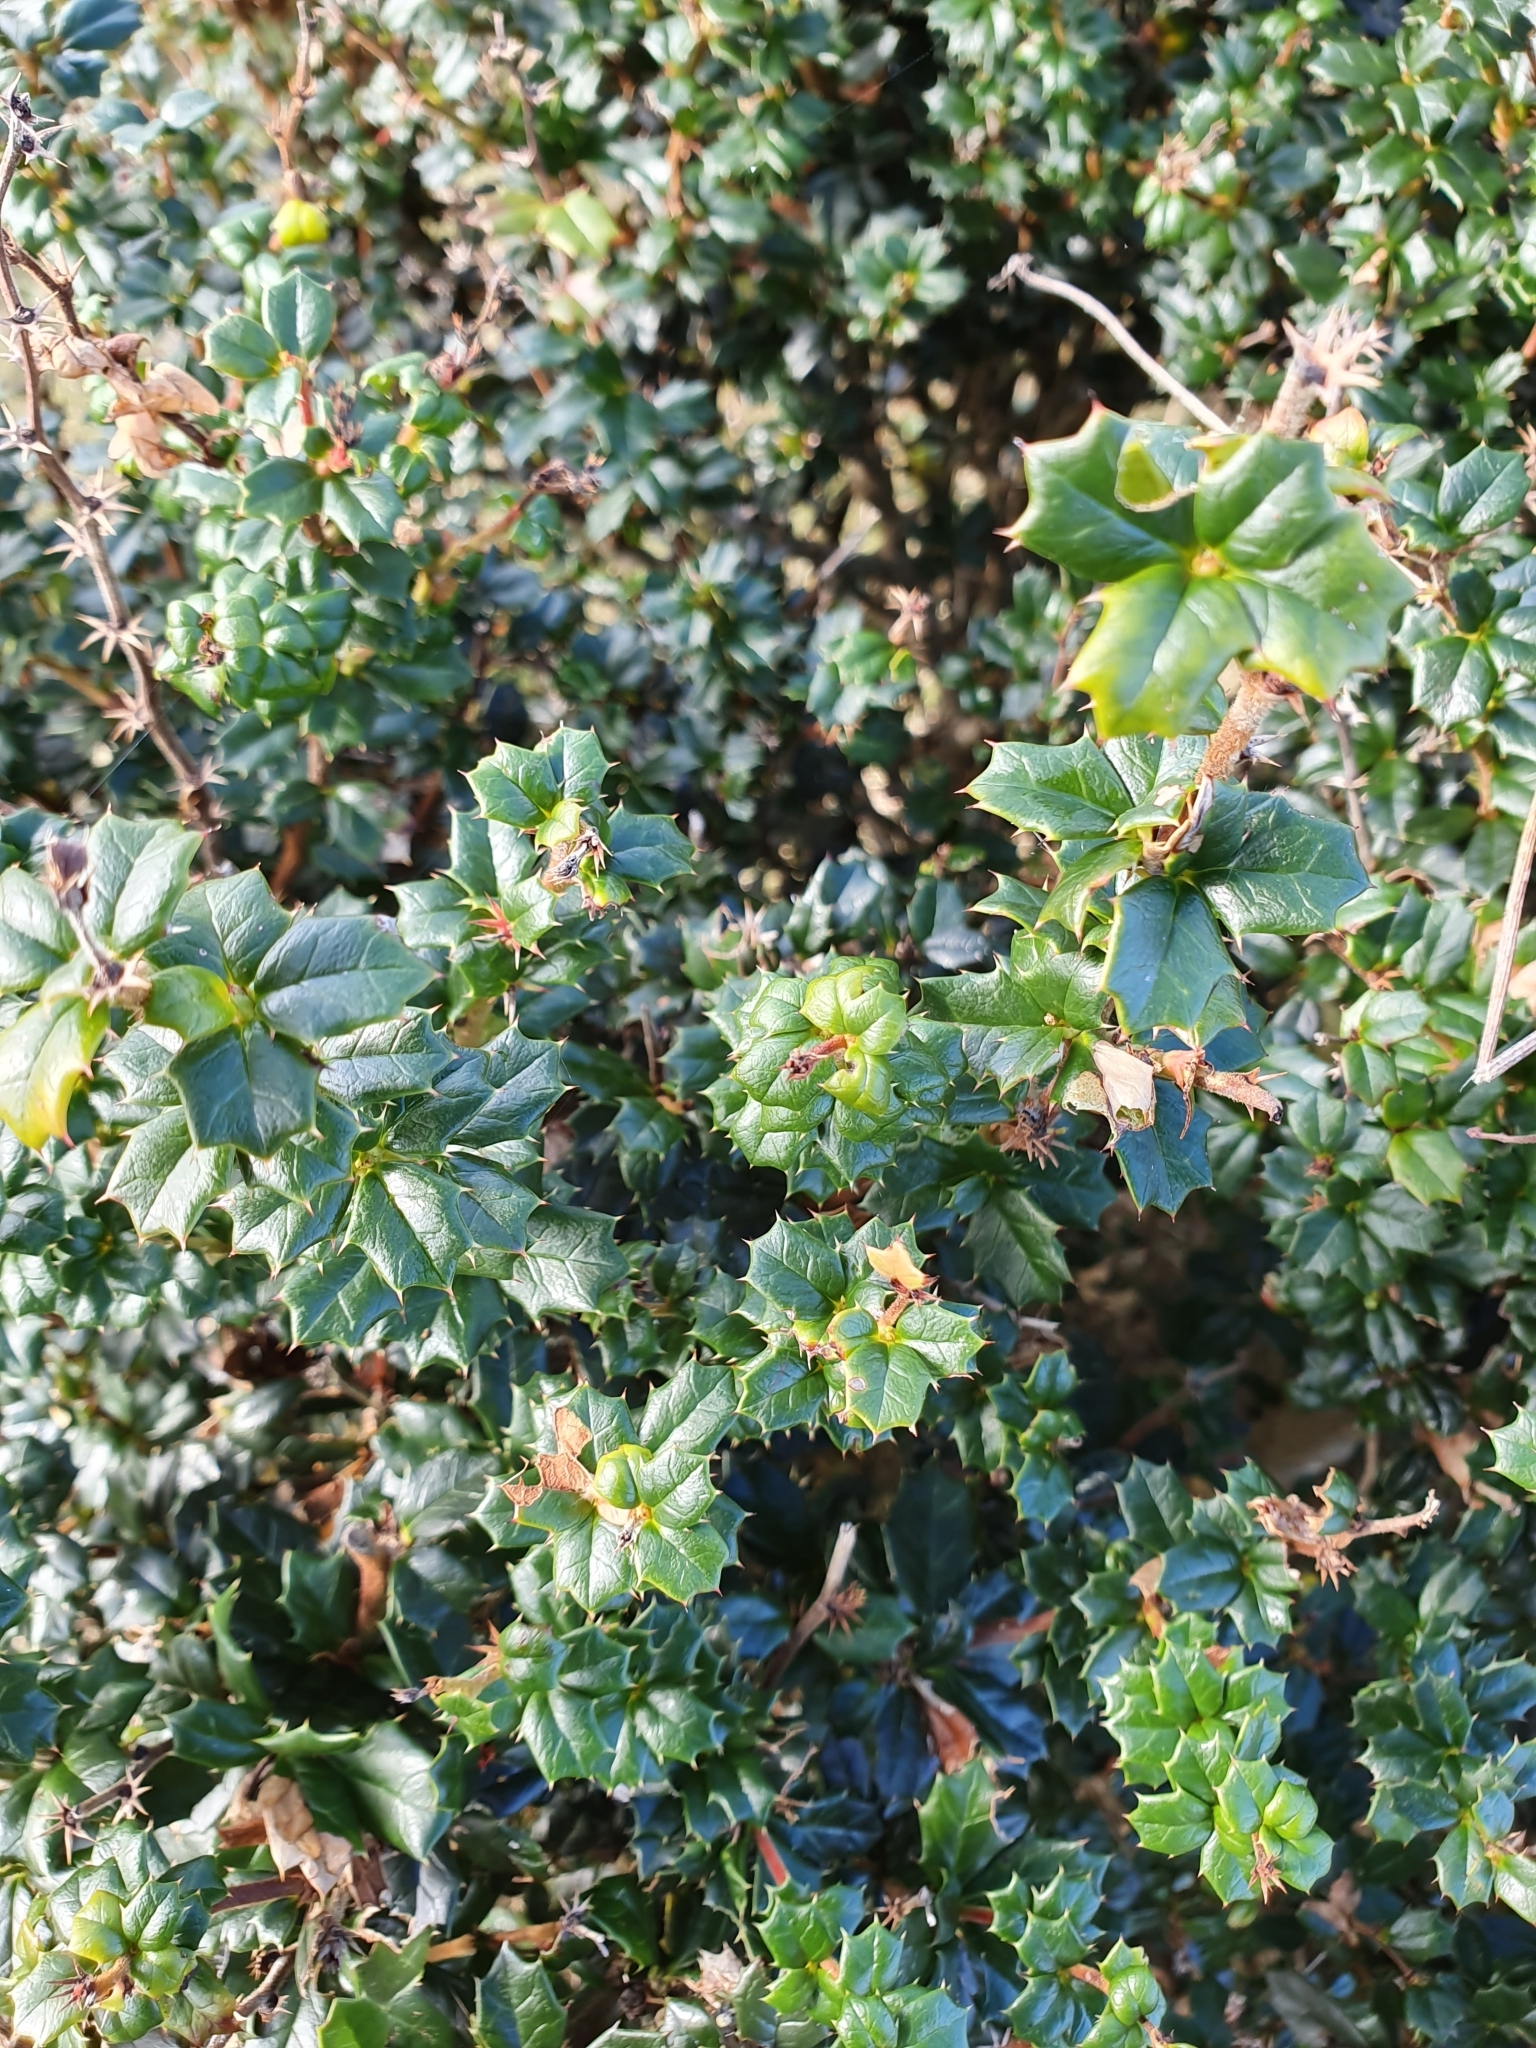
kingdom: Plantae
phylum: Tracheophyta
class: Magnoliopsida
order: Ranunculales
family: Berberidaceae
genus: Berberis
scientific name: Berberis darwinii
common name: Darwin's barberry
